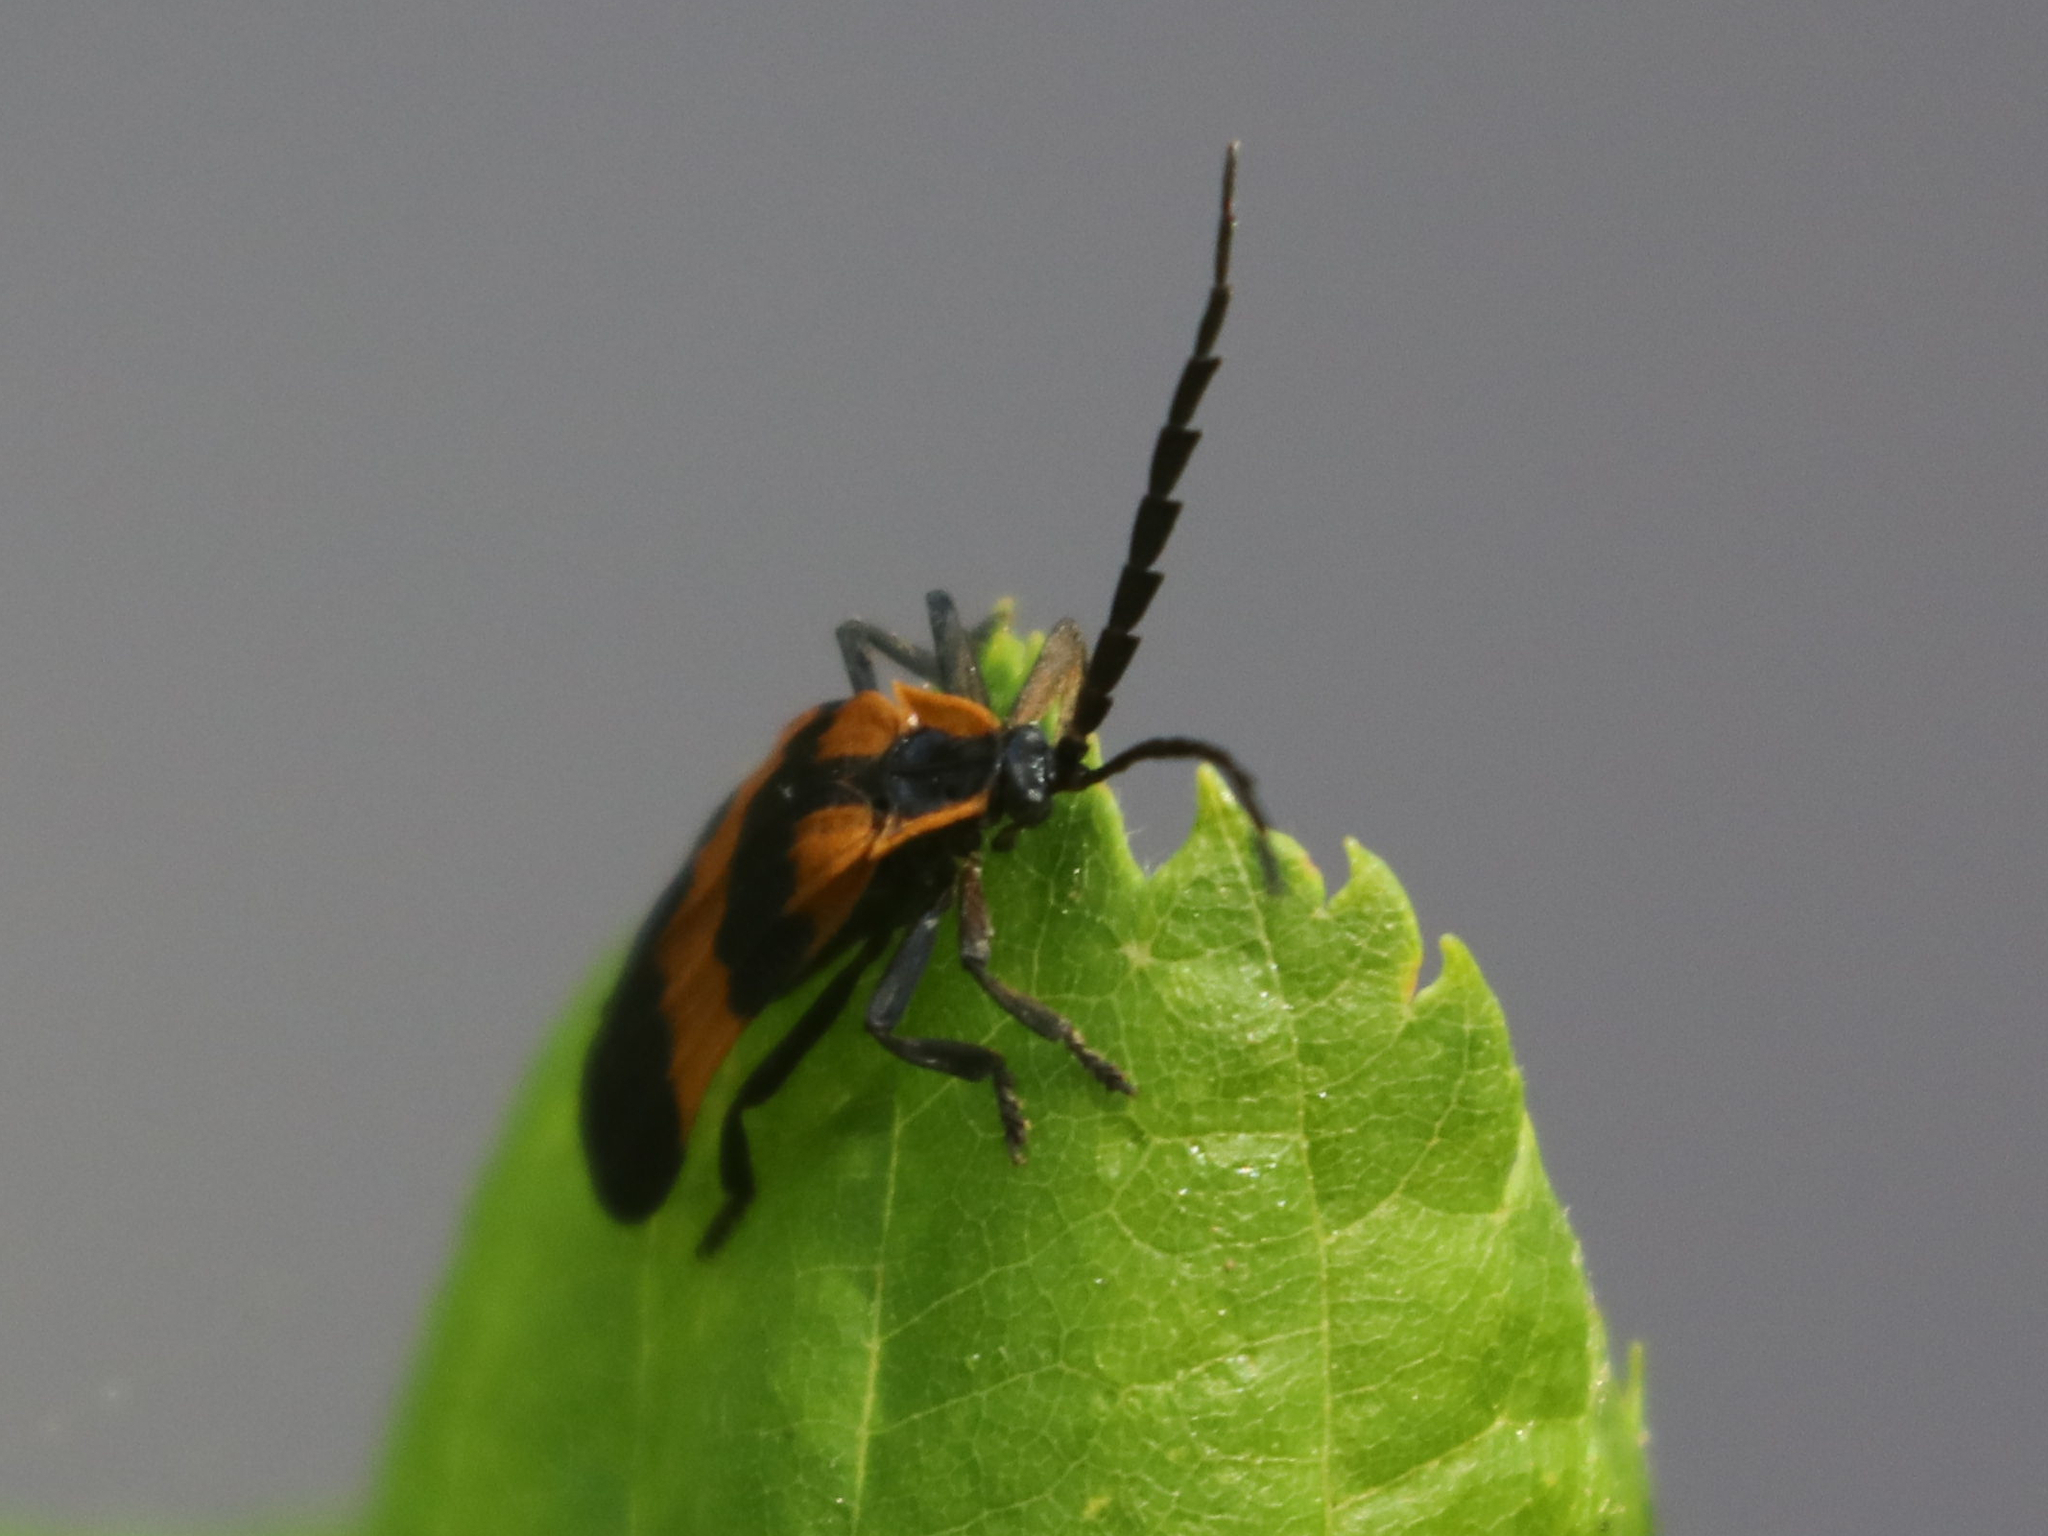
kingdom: Animalia
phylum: Arthropoda
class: Insecta
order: Coleoptera
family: Lycidae
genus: Calopteron
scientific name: Calopteron reticulatum
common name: Banded net-winged beetle
